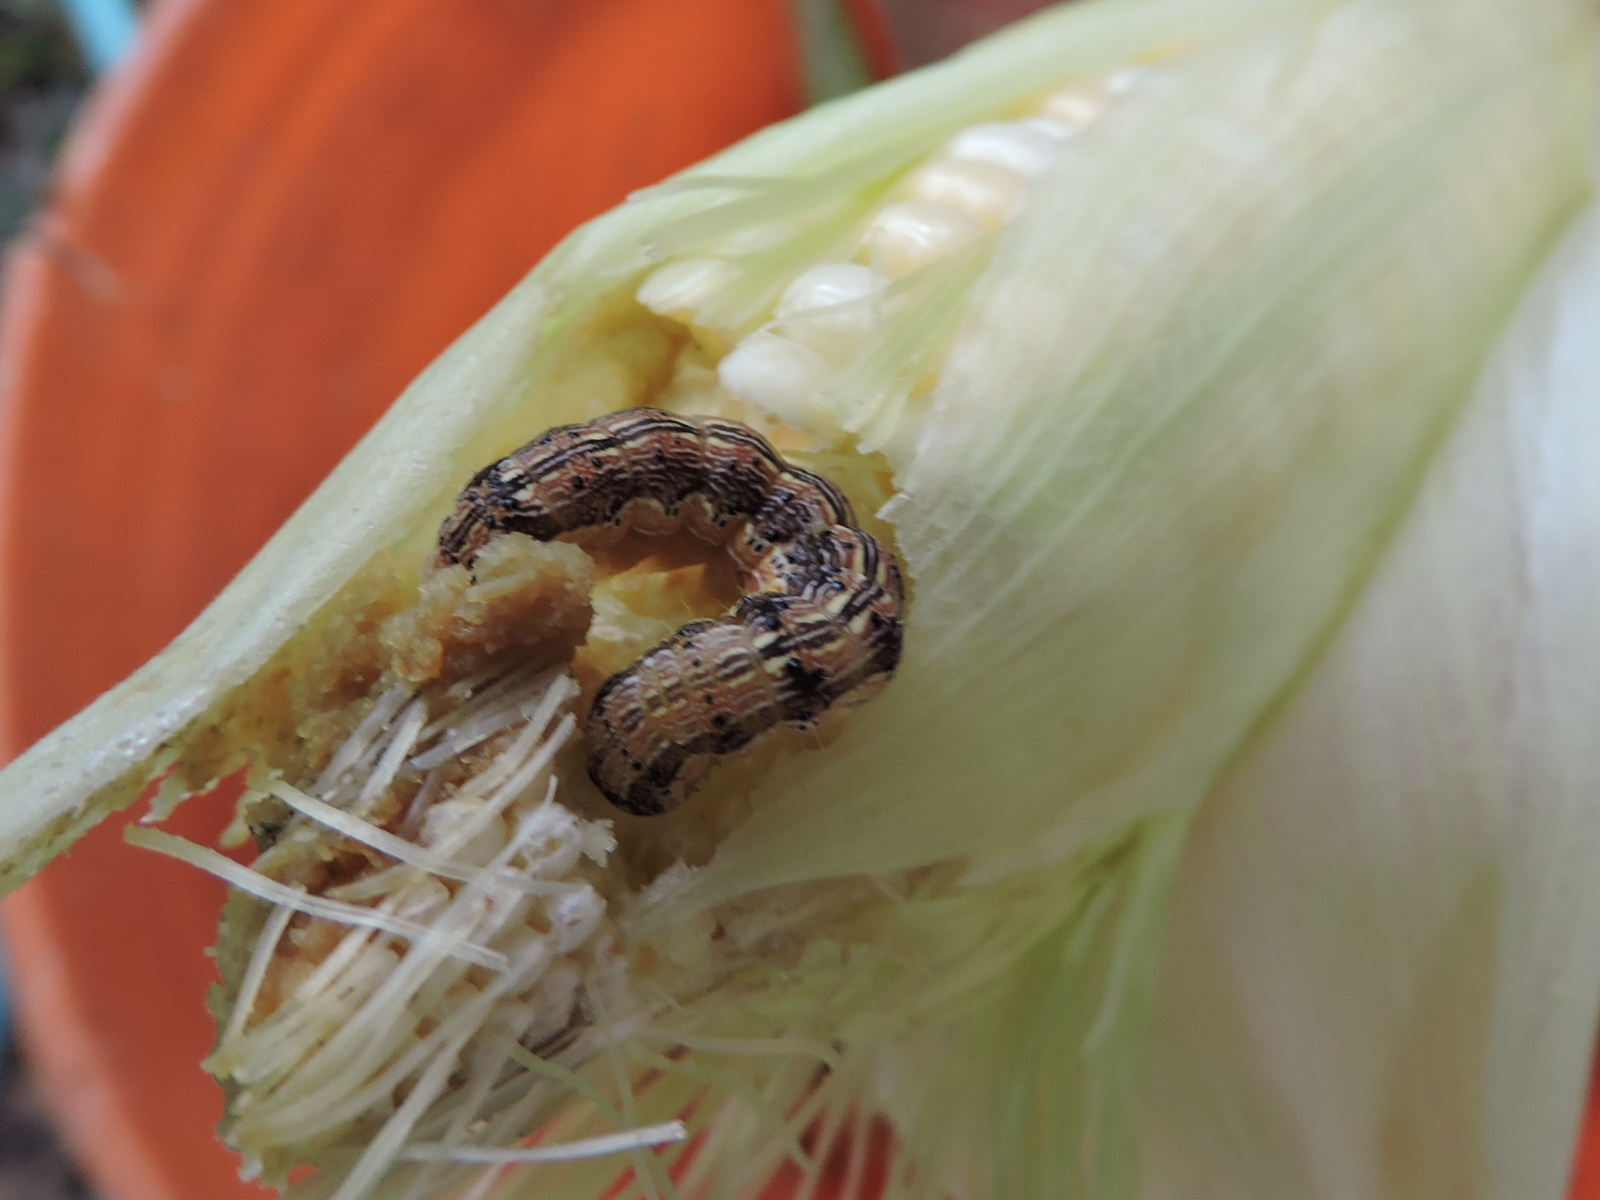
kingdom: Animalia
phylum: Arthropoda
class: Insecta
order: Lepidoptera
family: Noctuidae
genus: Helicoverpa
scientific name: Helicoverpa zea
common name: Bollworm
